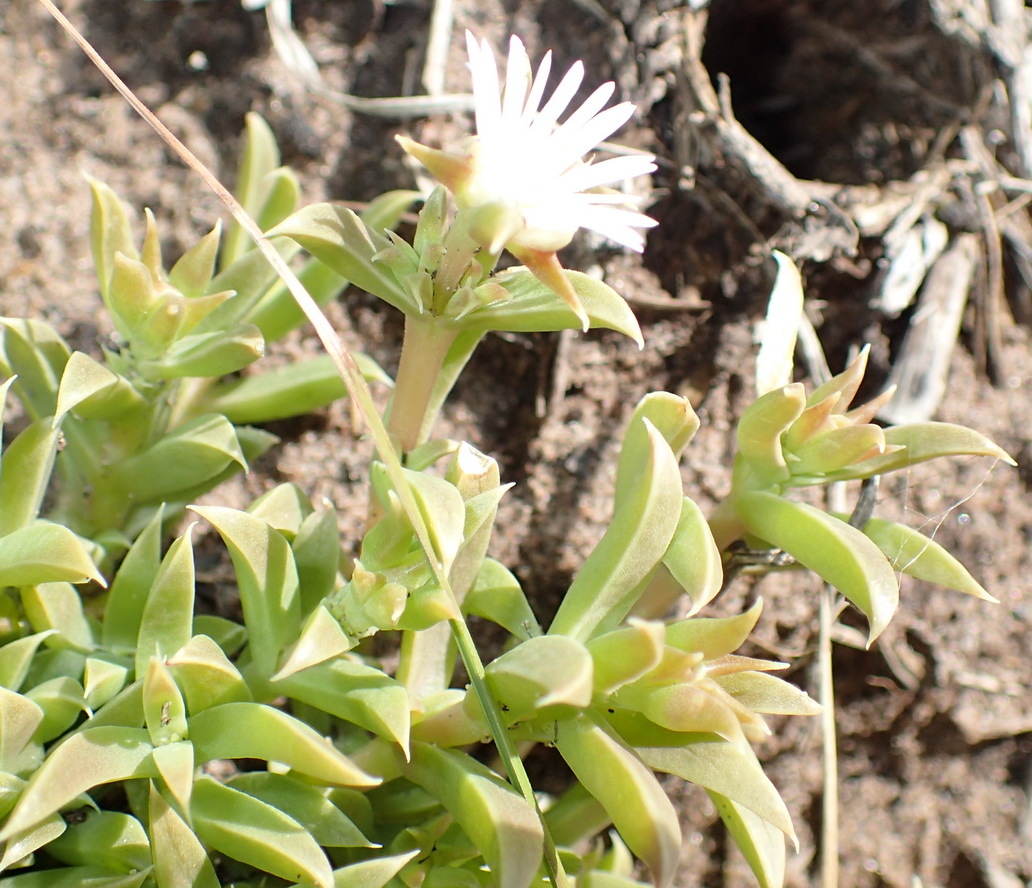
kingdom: Plantae
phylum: Tracheophyta
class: Magnoliopsida
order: Caryophyllales
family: Aizoaceae
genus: Delosperma
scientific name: Delosperma inconspicuum
